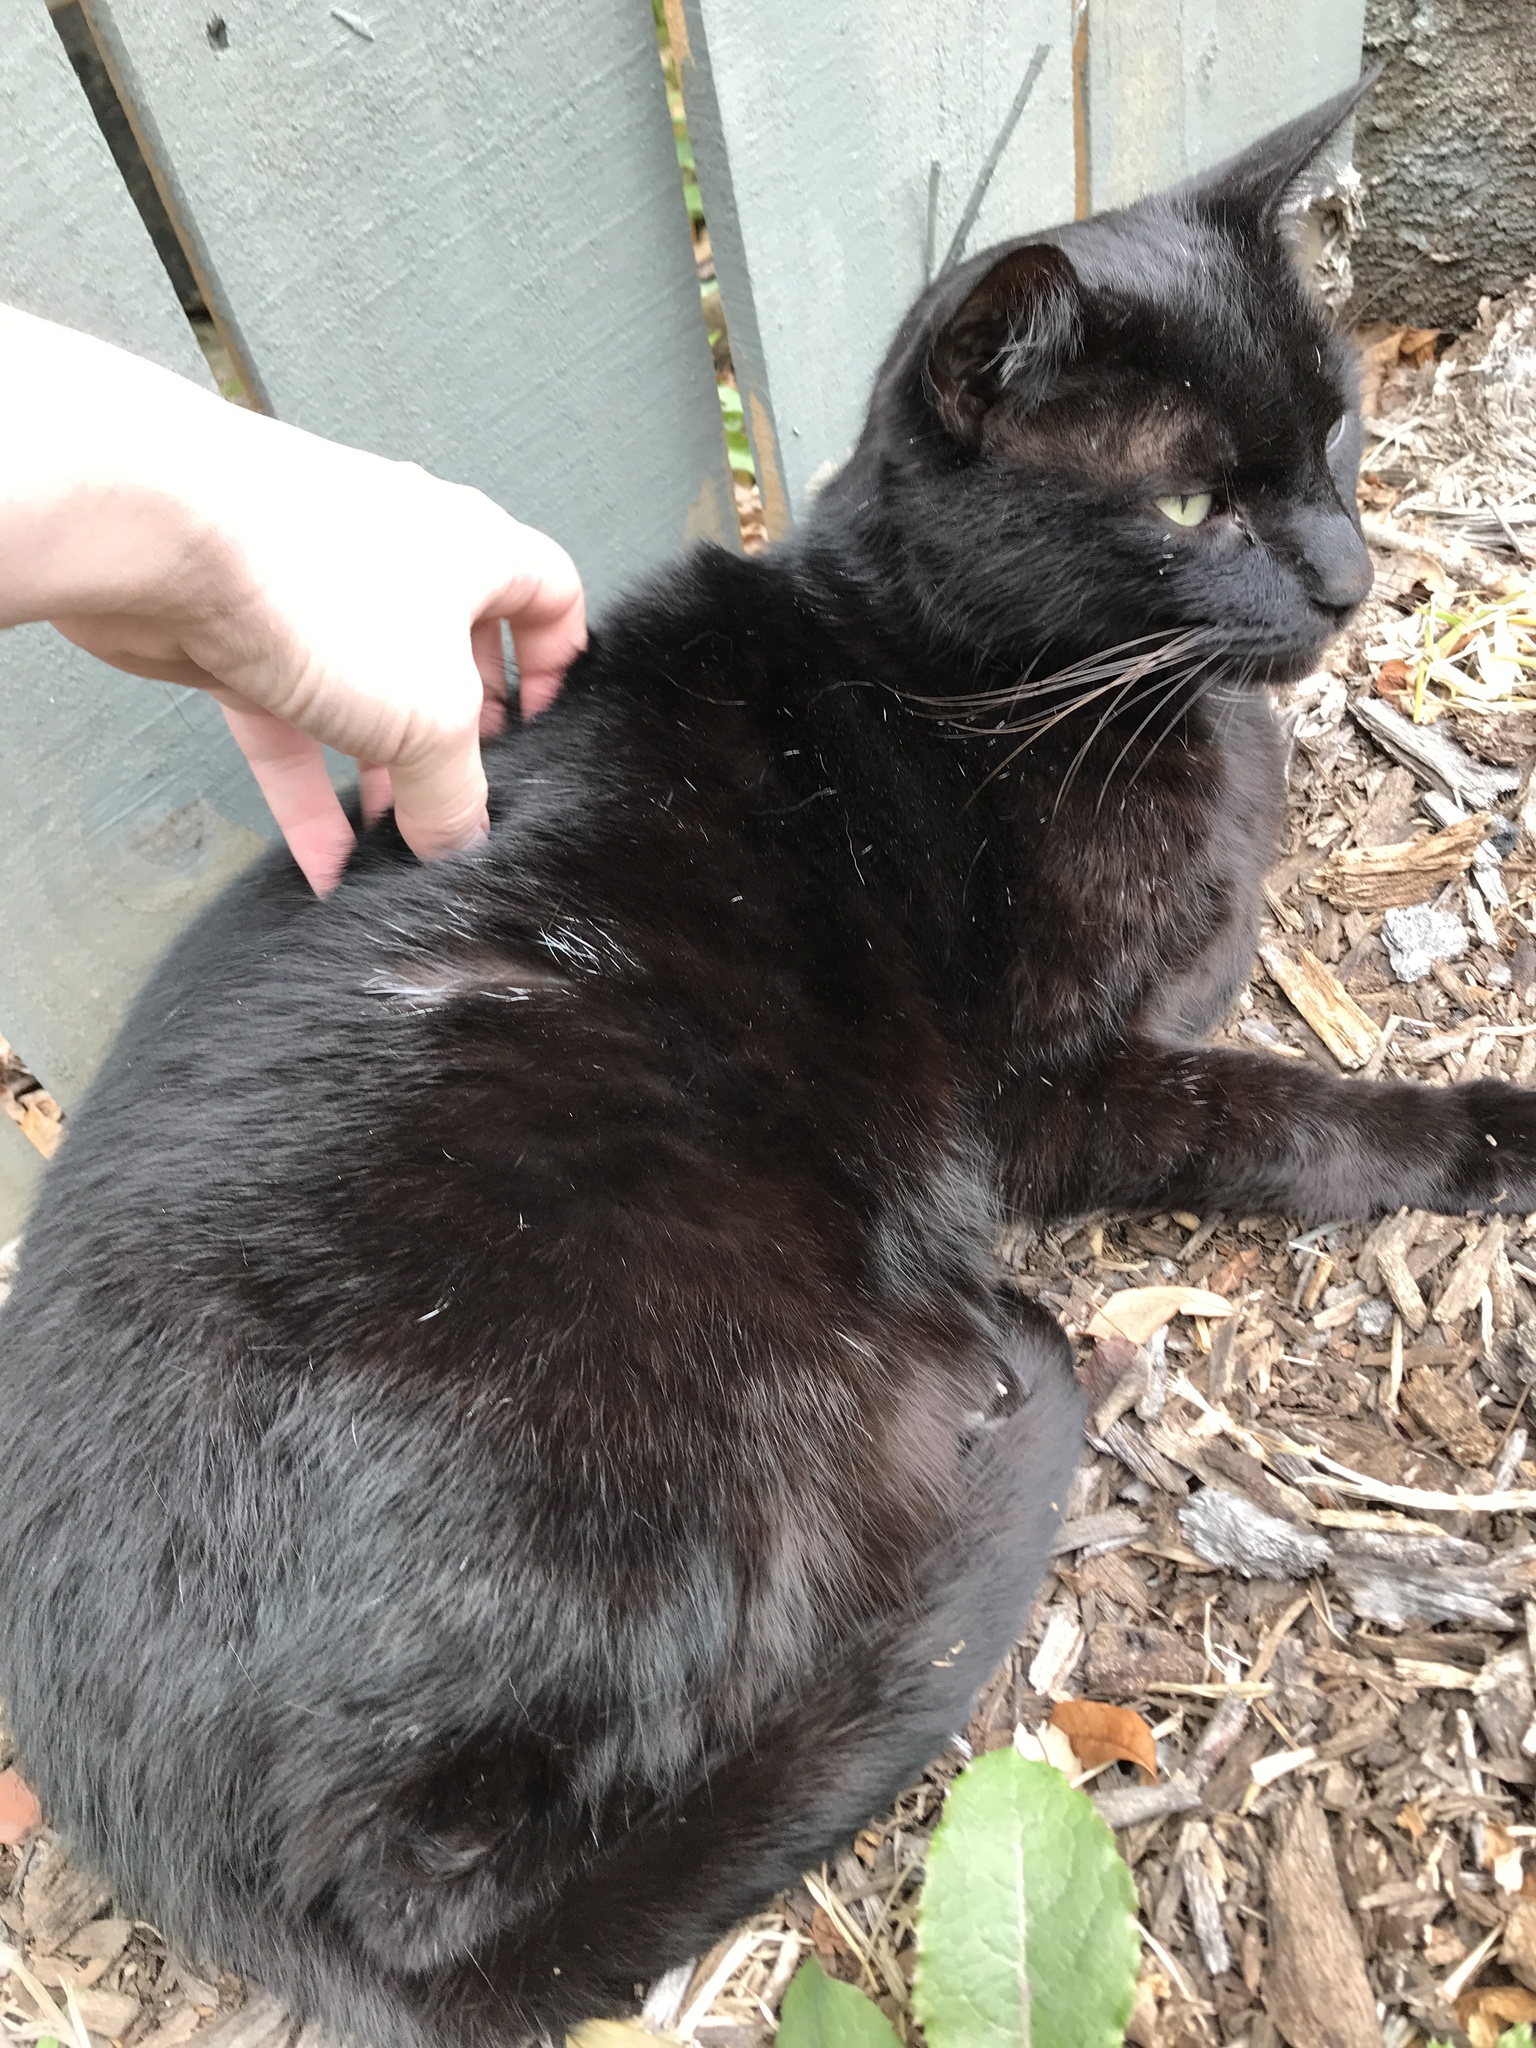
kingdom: Animalia
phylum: Chordata
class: Mammalia
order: Carnivora
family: Felidae
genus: Felis
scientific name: Felis catus
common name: Domestic cat
